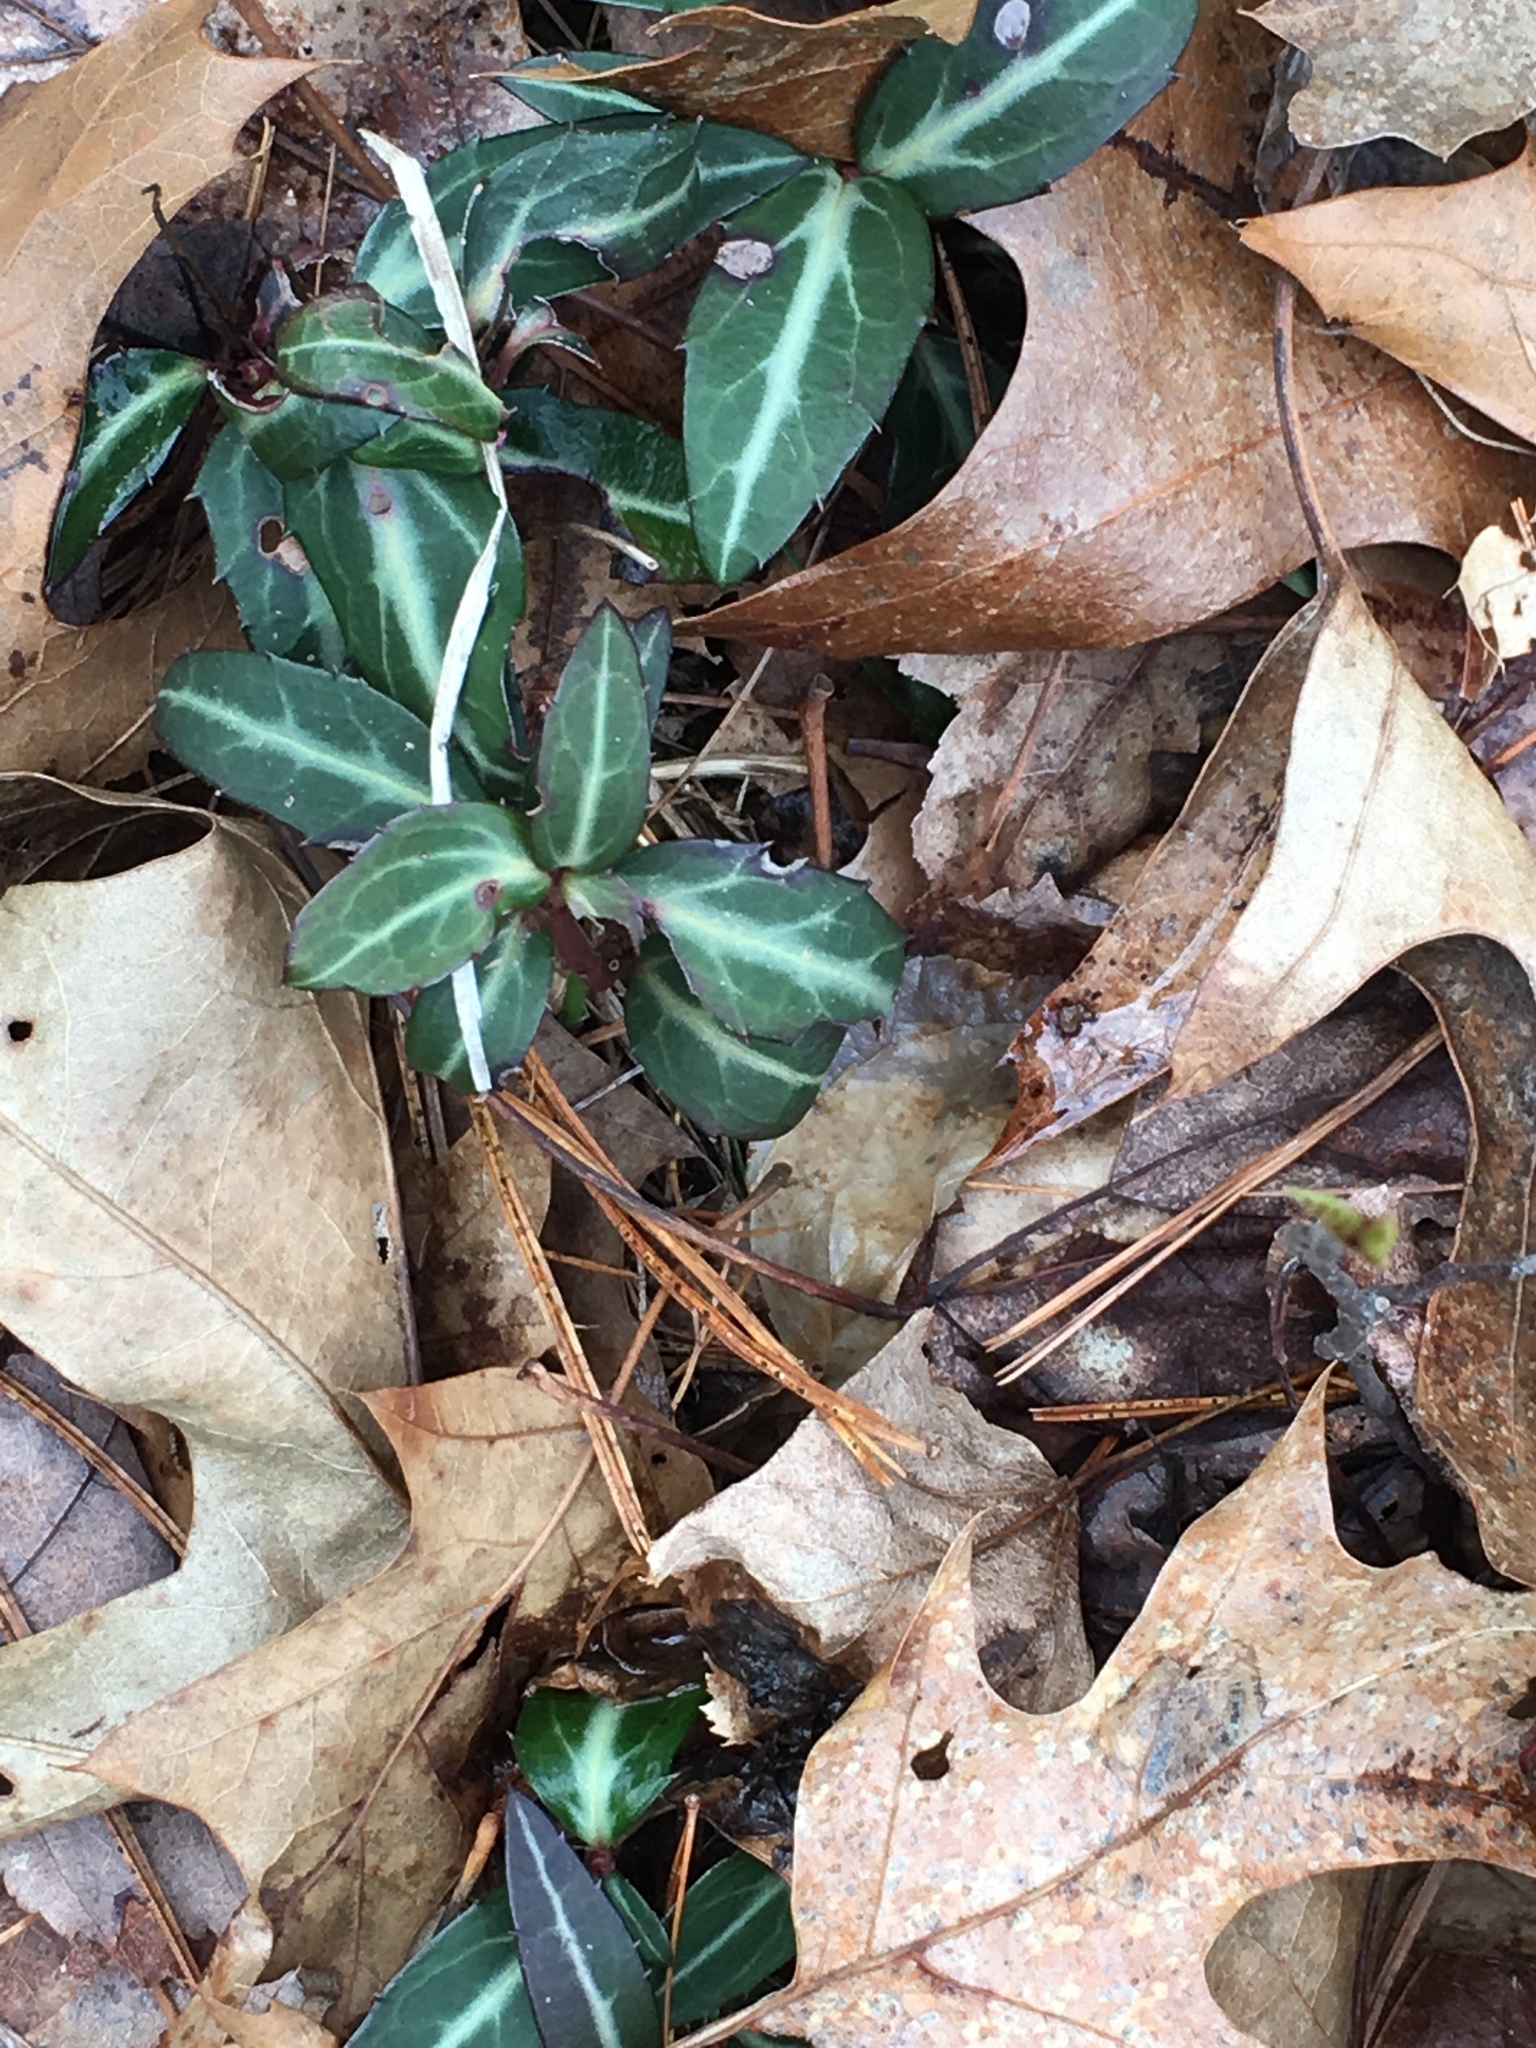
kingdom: Plantae
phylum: Tracheophyta
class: Magnoliopsida
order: Ericales
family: Ericaceae
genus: Chimaphila
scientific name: Chimaphila maculata
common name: Spotted pipsissewa
